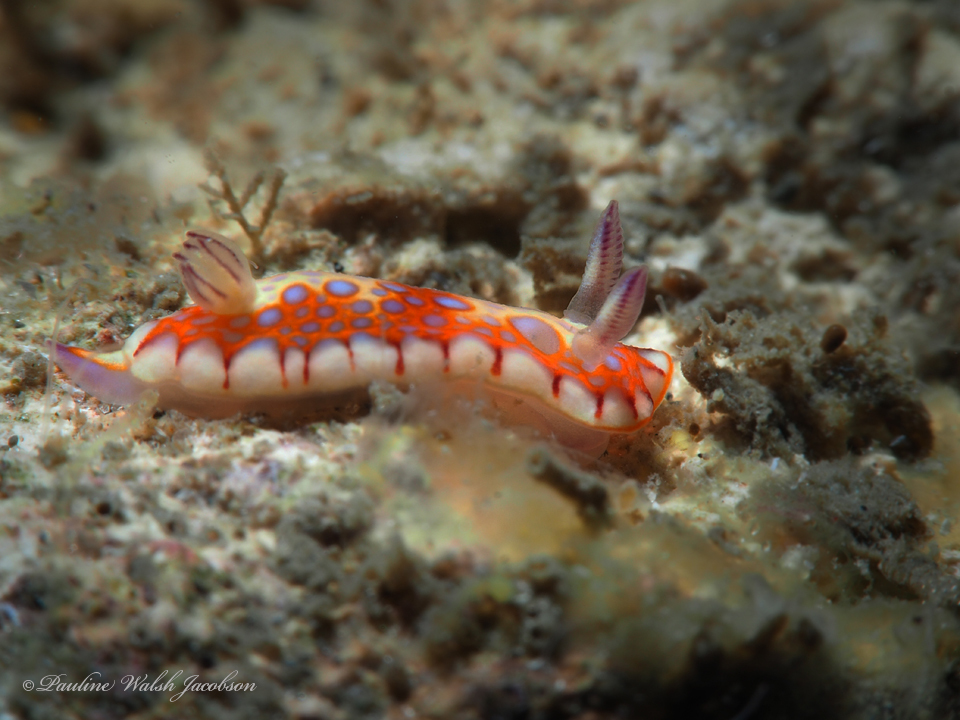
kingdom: Animalia
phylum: Mollusca
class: Gastropoda
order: Nudibranchia
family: Chromodorididae
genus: Felimida
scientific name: Felimida binza
